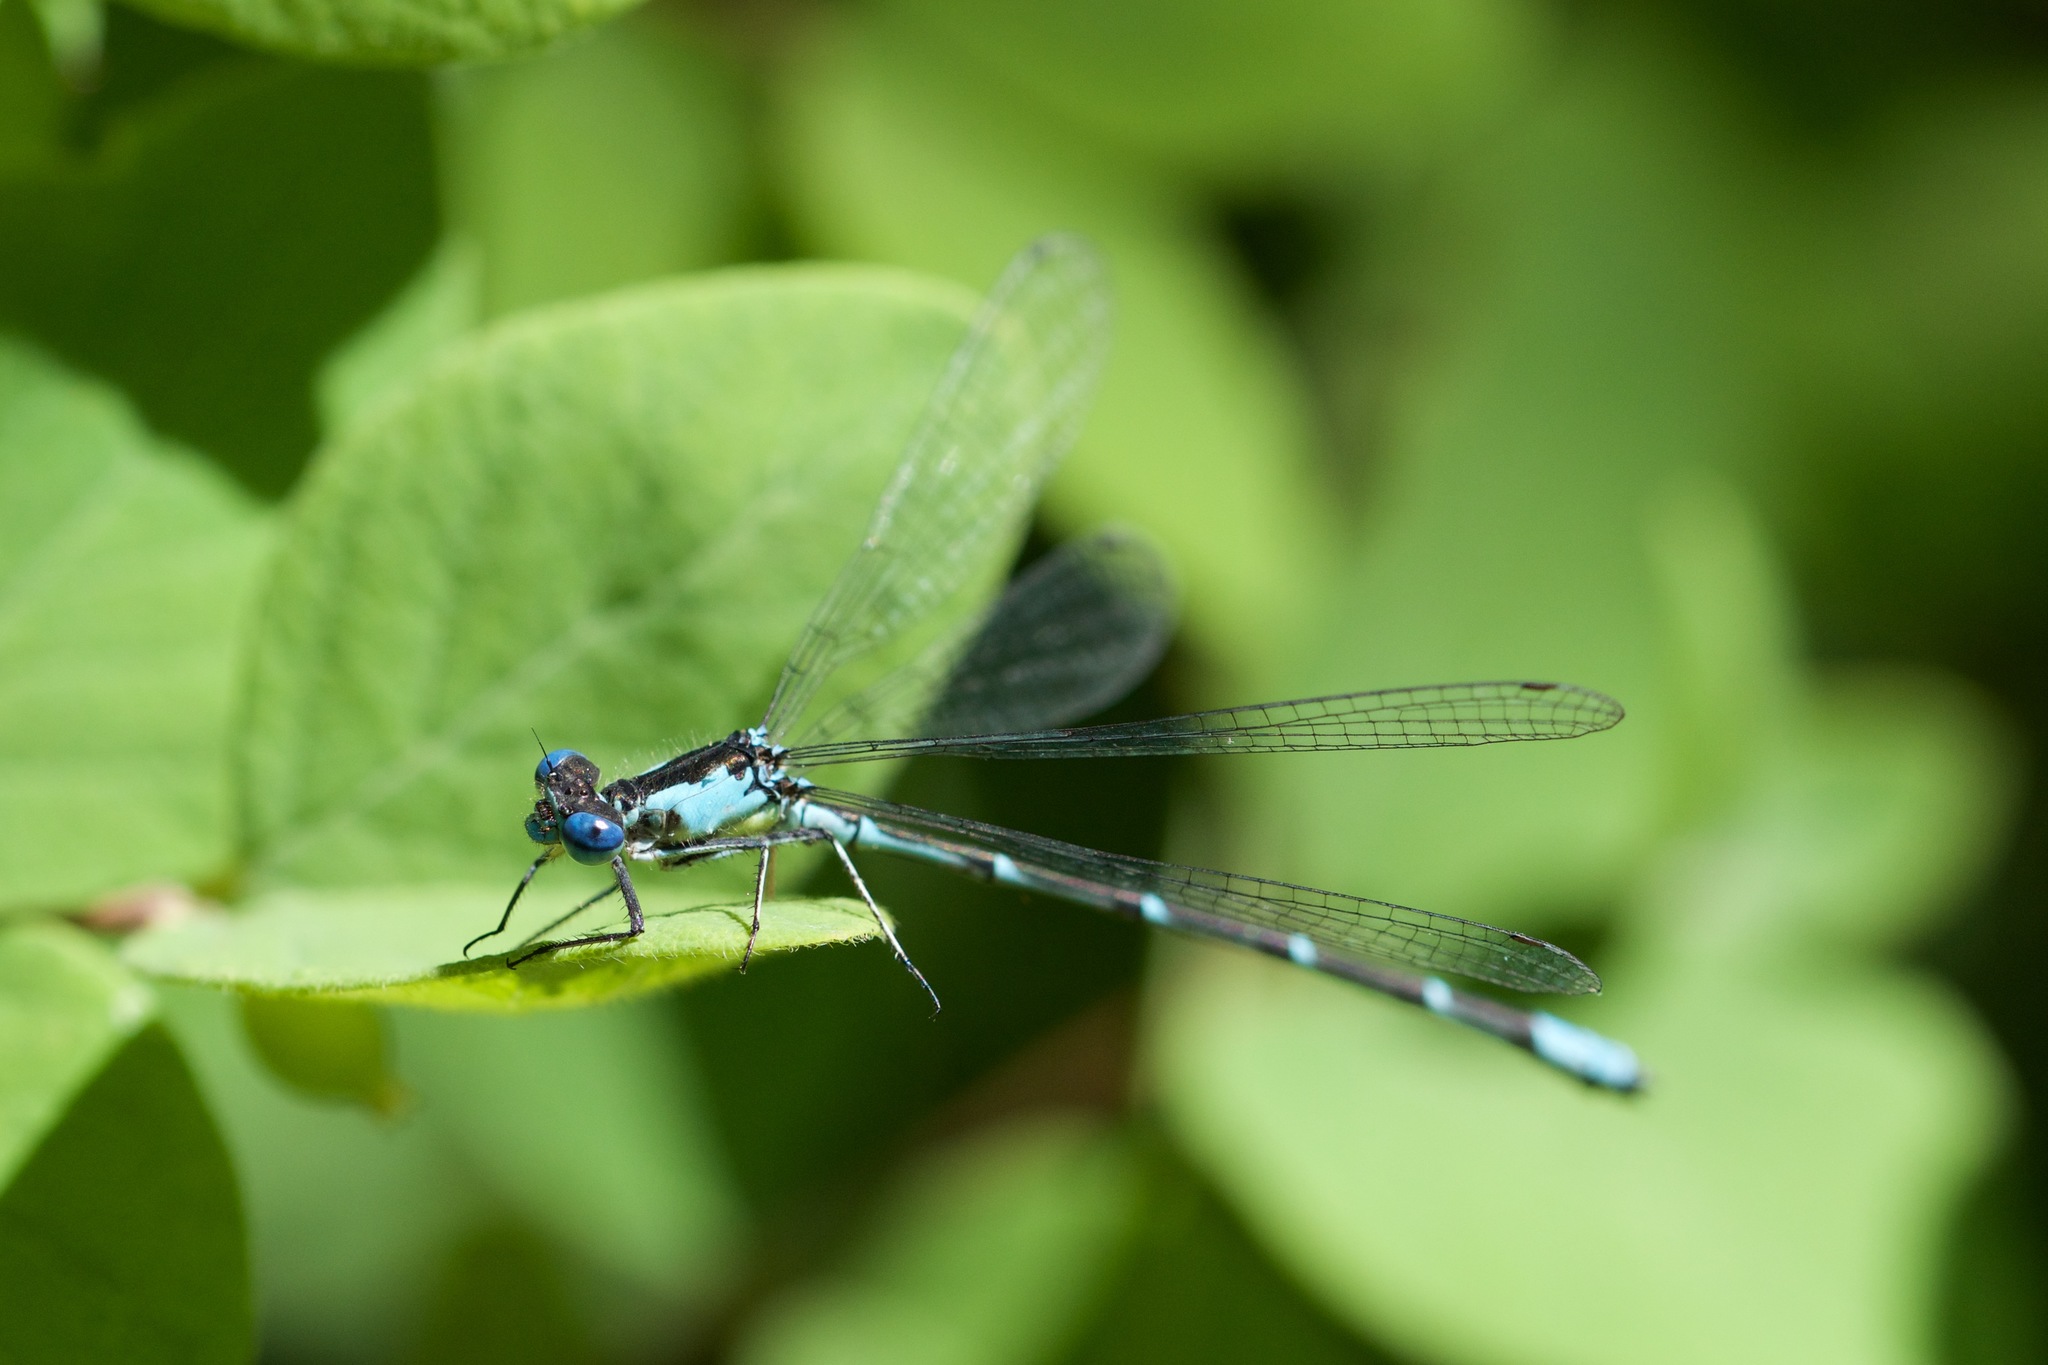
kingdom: Animalia
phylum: Arthropoda
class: Insecta
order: Odonata
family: Coenagrionidae
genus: Chromagrion
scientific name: Chromagrion conditum
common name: Aurora damsel
